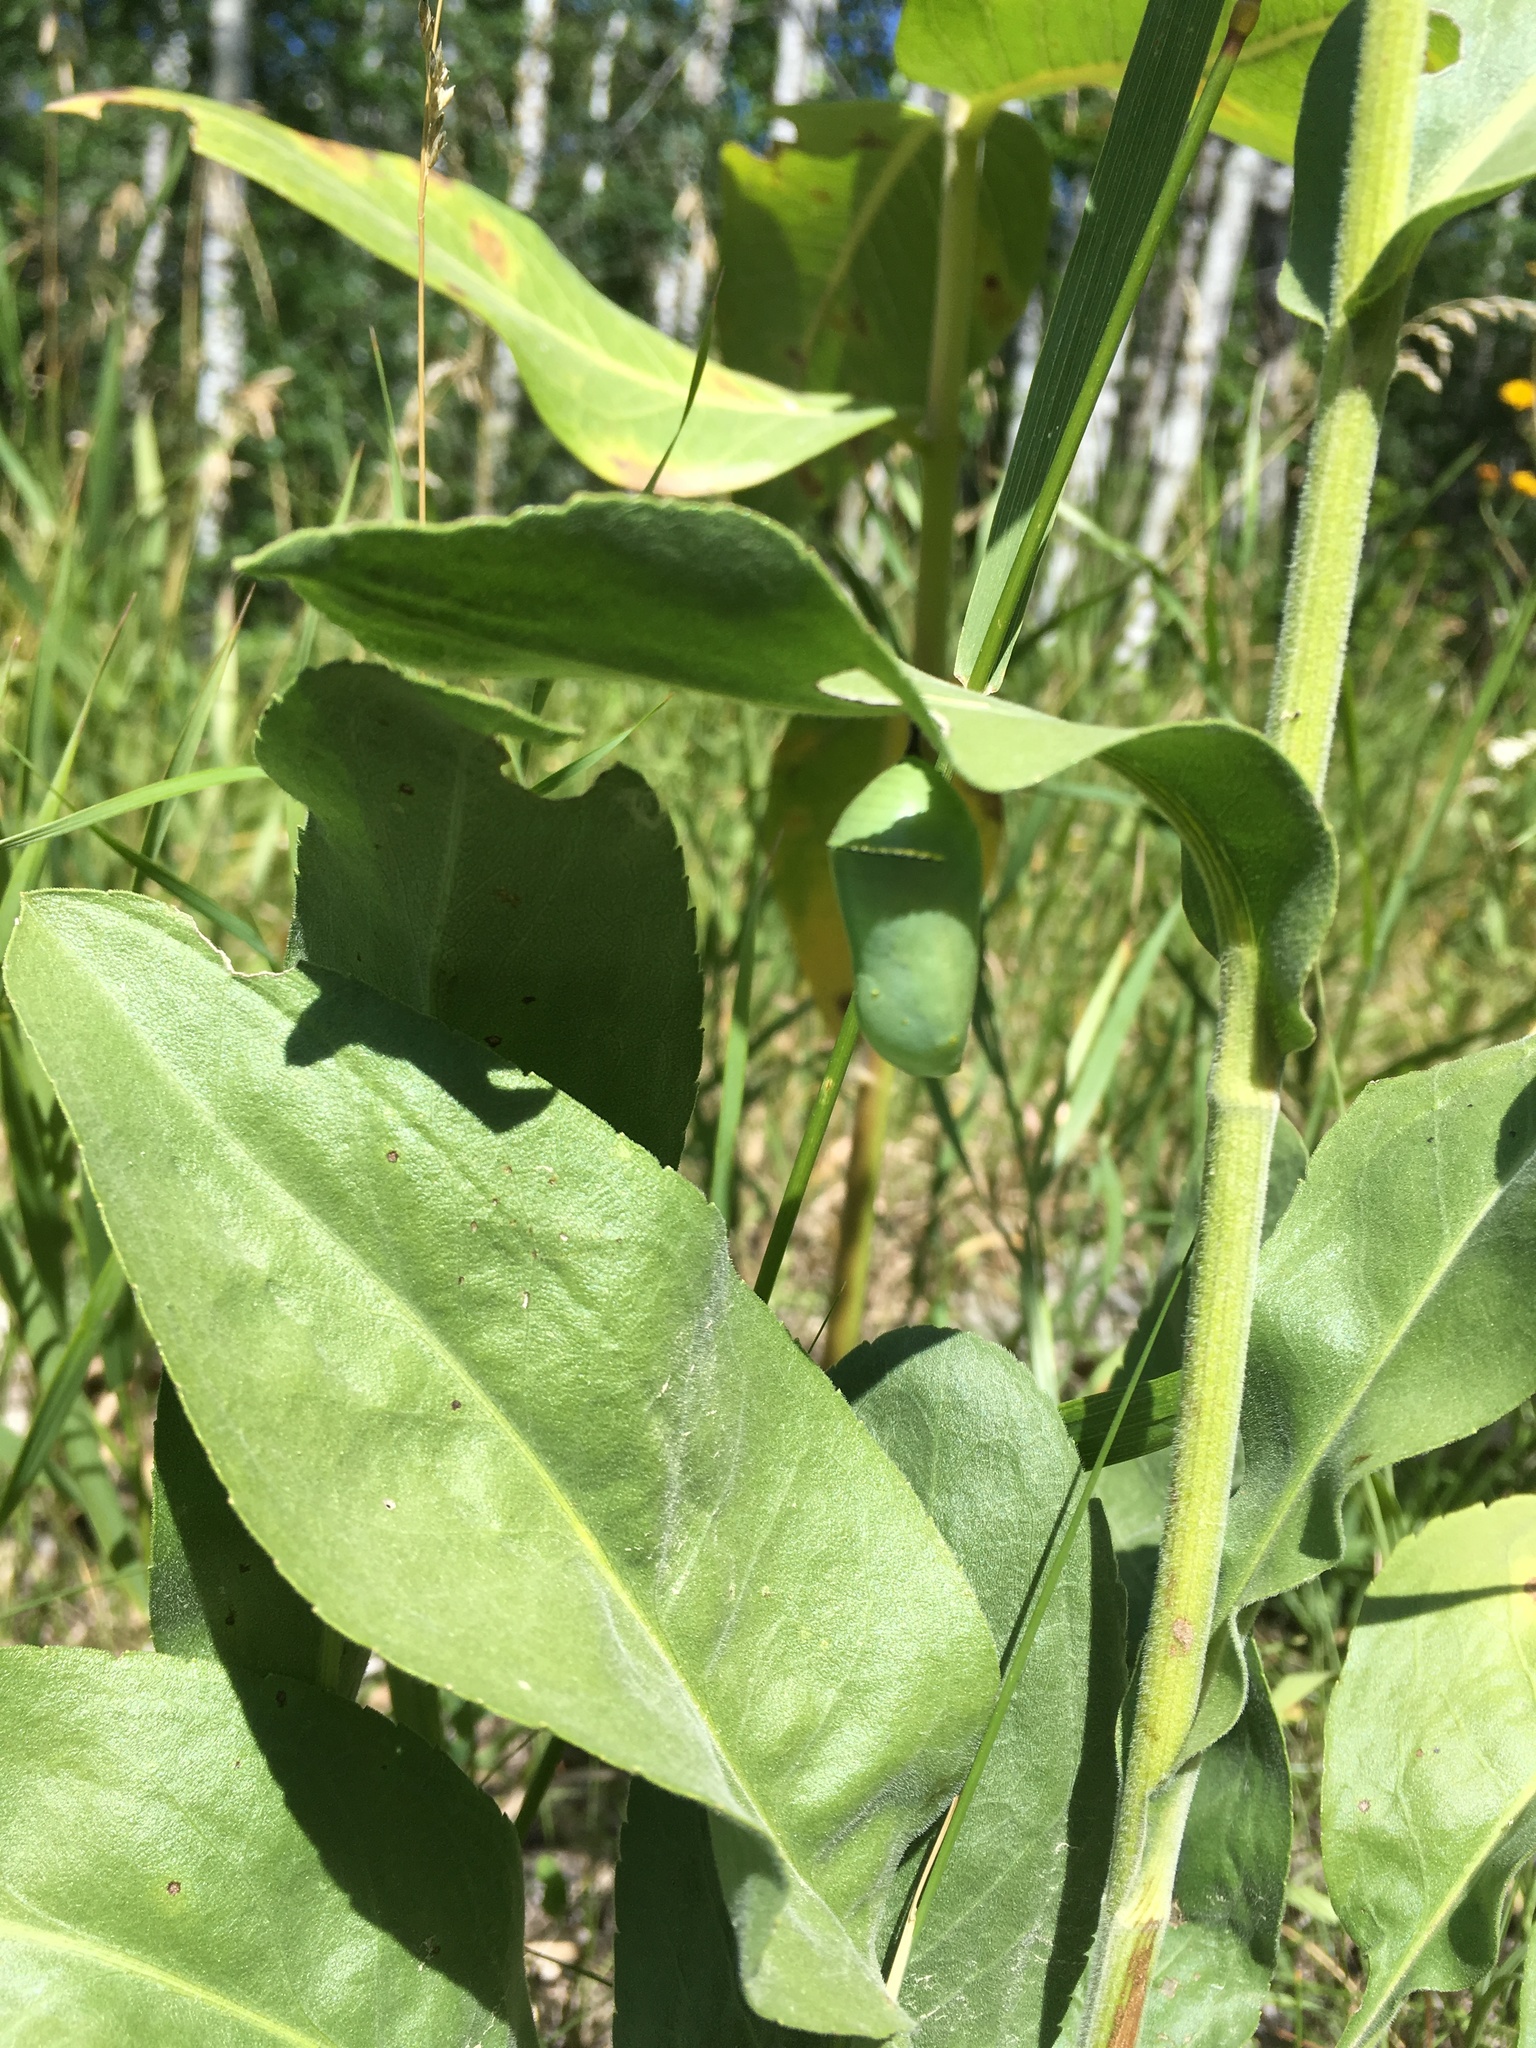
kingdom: Animalia
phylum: Arthropoda
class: Insecta
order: Lepidoptera
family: Nymphalidae
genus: Danaus
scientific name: Danaus plexippus
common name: Monarch
